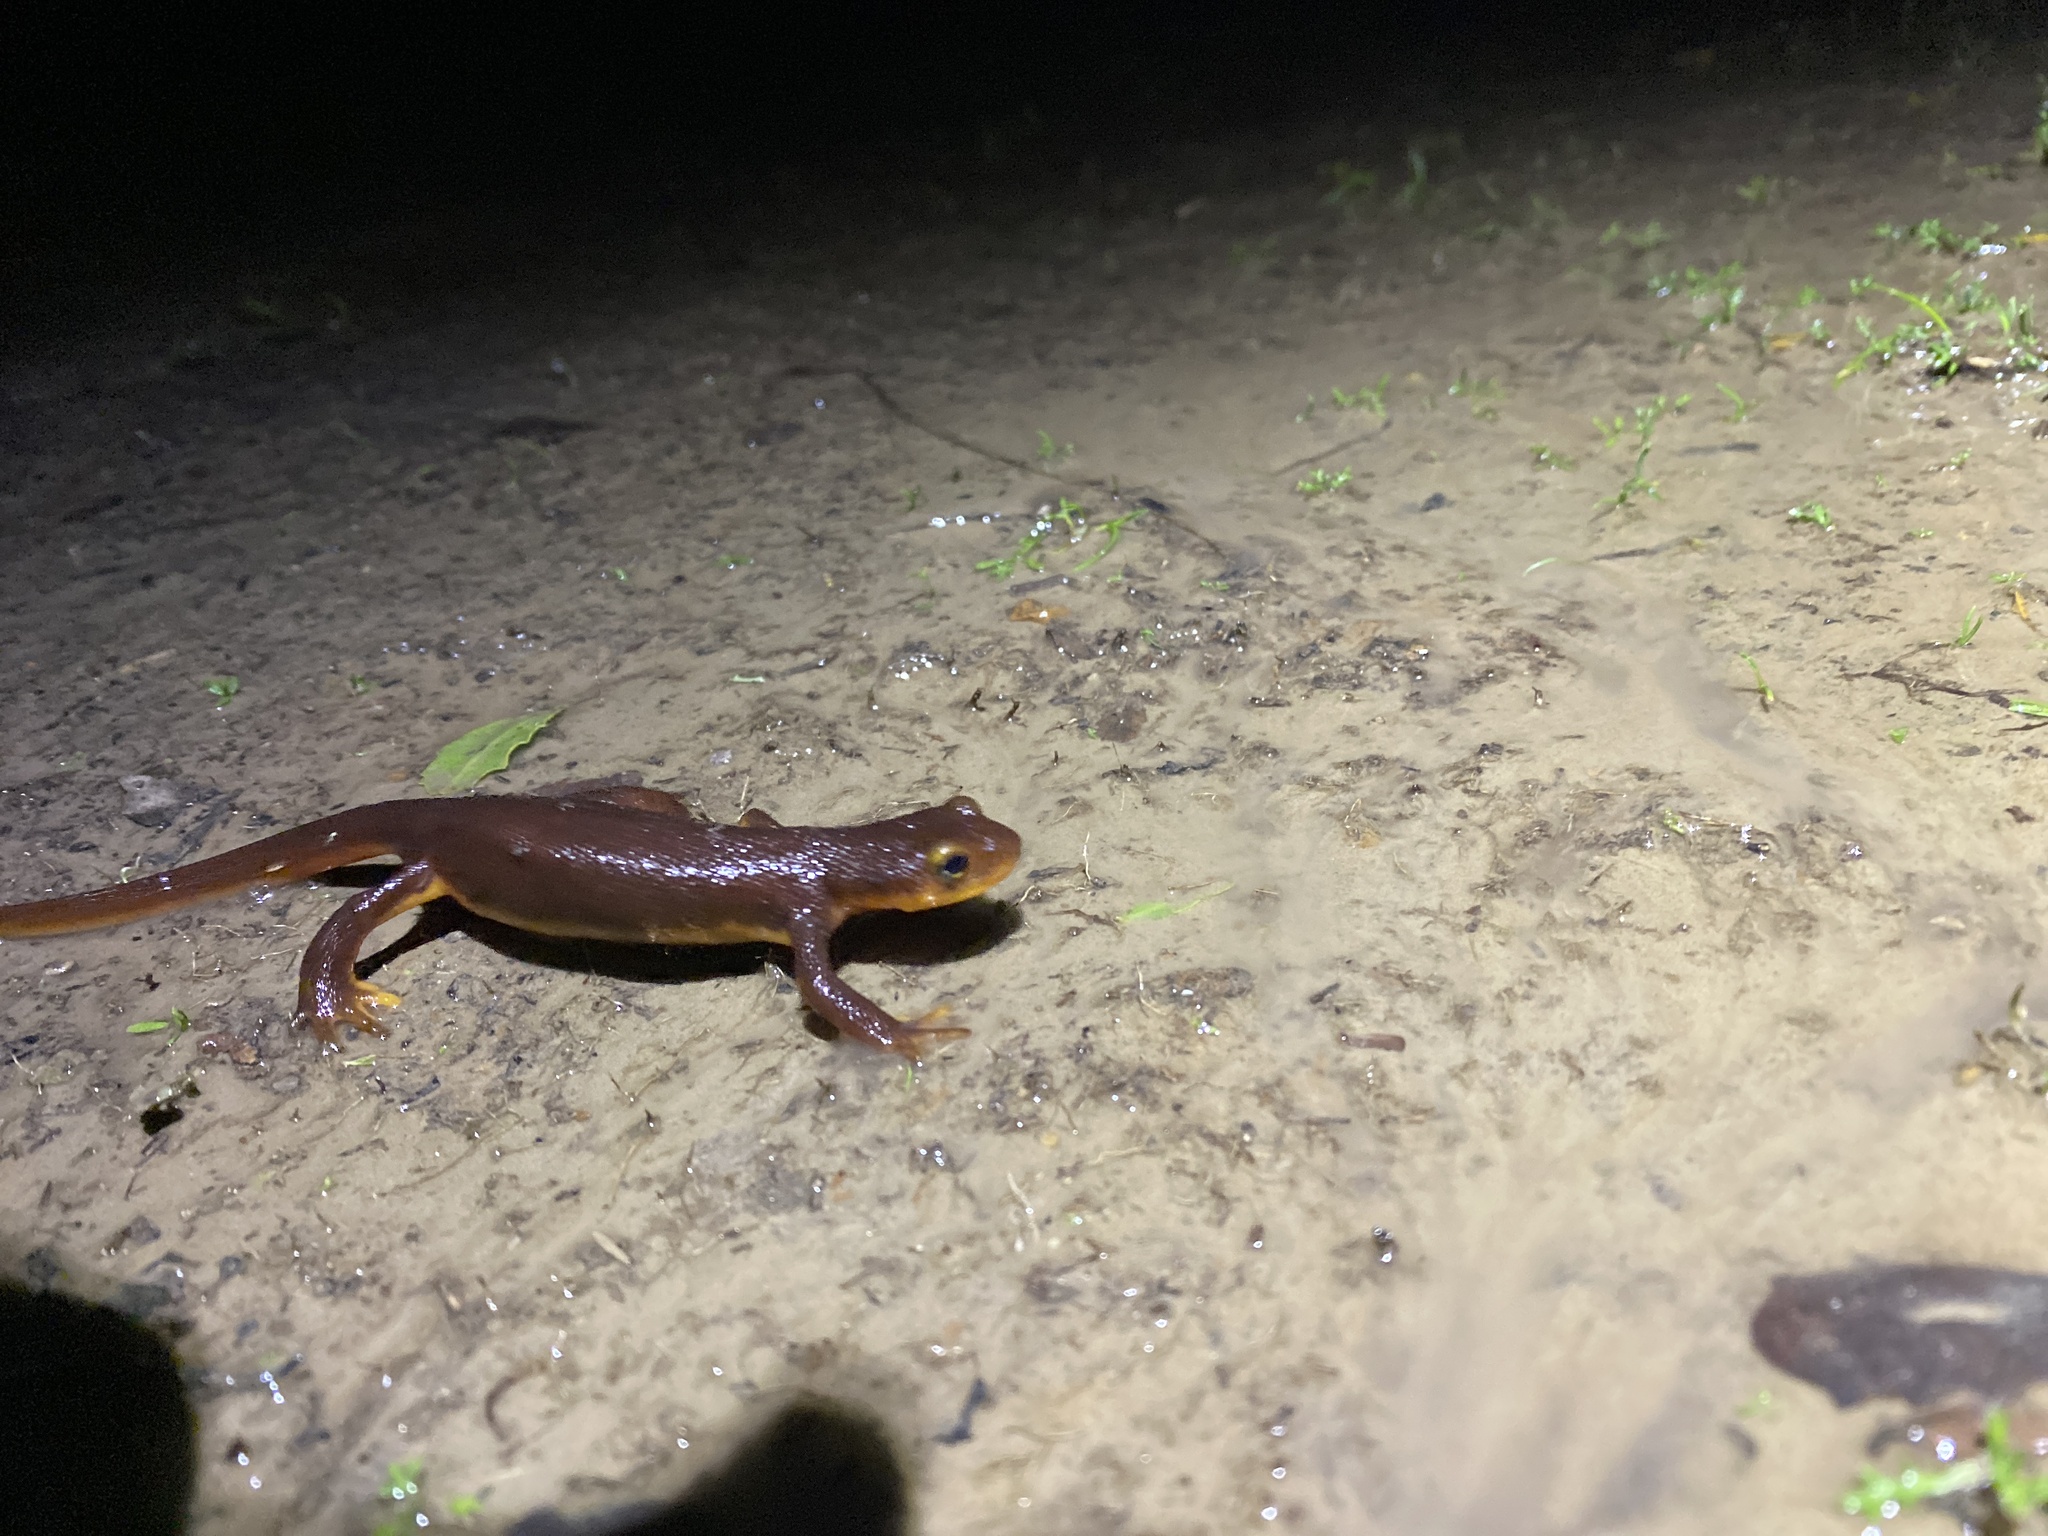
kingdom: Animalia
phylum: Chordata
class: Amphibia
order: Caudata
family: Salamandridae
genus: Taricha
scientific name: Taricha torosa
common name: California newt
